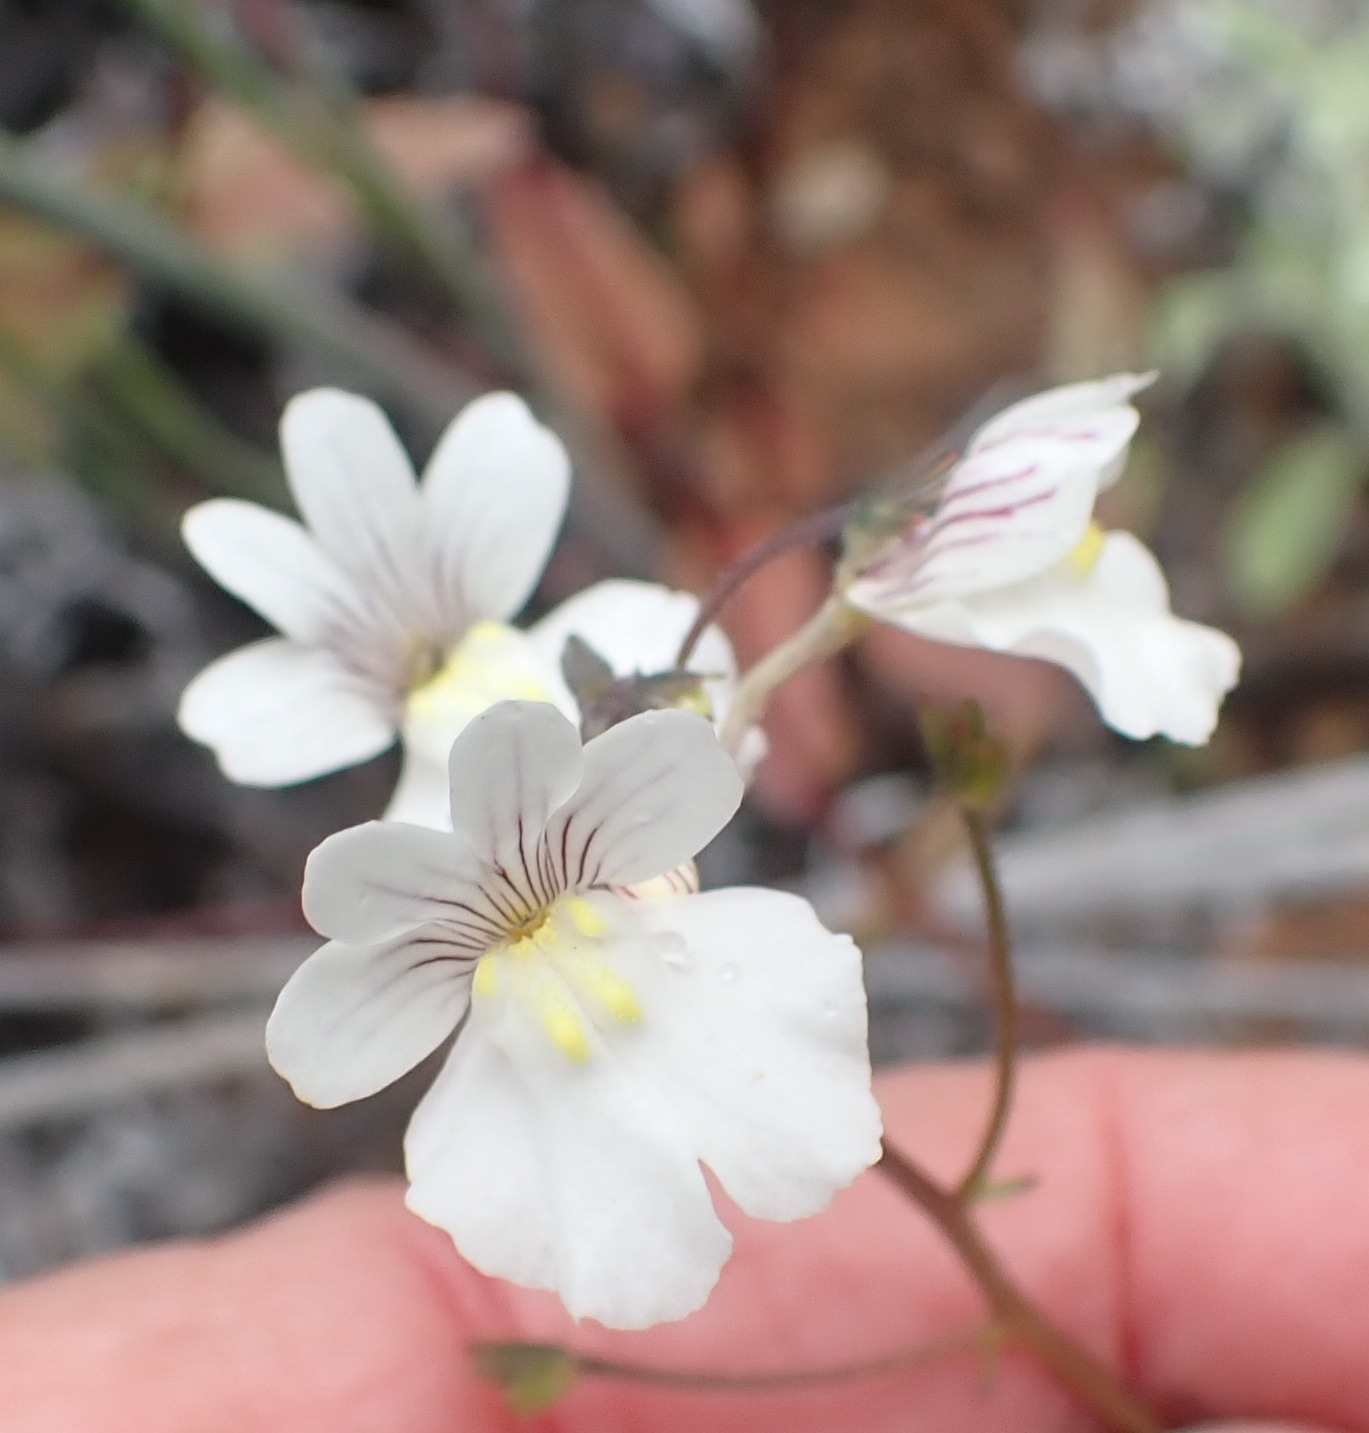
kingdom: Plantae
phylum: Tracheophyta
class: Magnoliopsida
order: Lamiales
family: Scrophulariaceae
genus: Nemesia
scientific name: Nemesia bicornis
